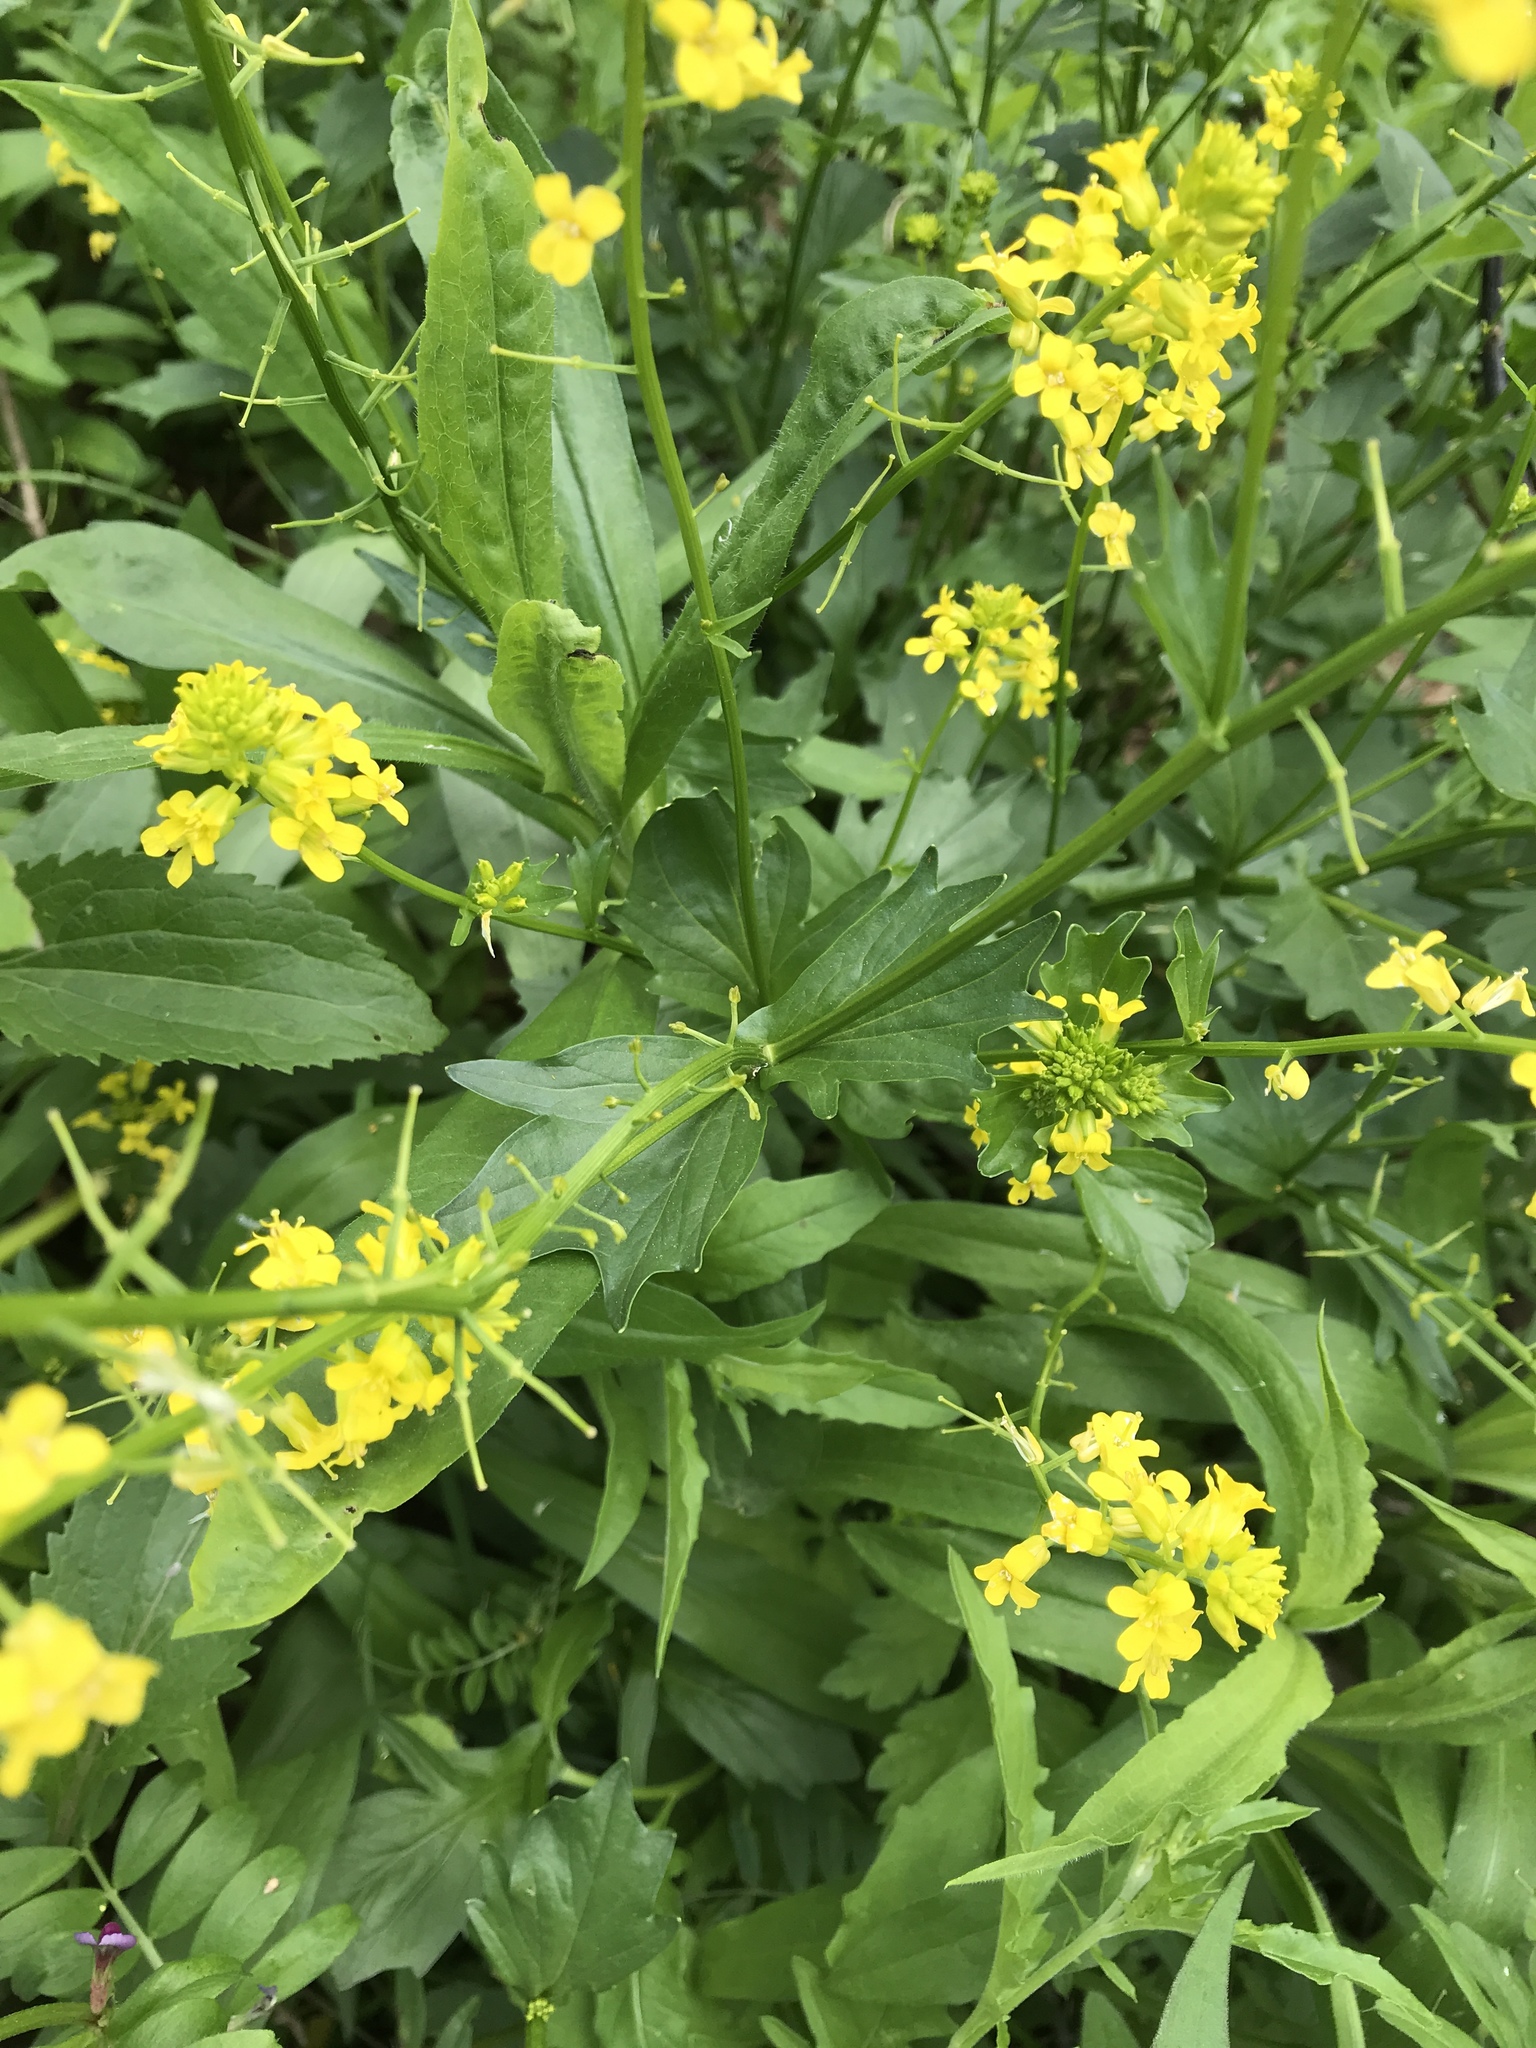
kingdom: Plantae
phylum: Tracheophyta
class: Magnoliopsida
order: Brassicales
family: Brassicaceae
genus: Barbarea
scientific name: Barbarea vulgaris
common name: Cressy-greens
